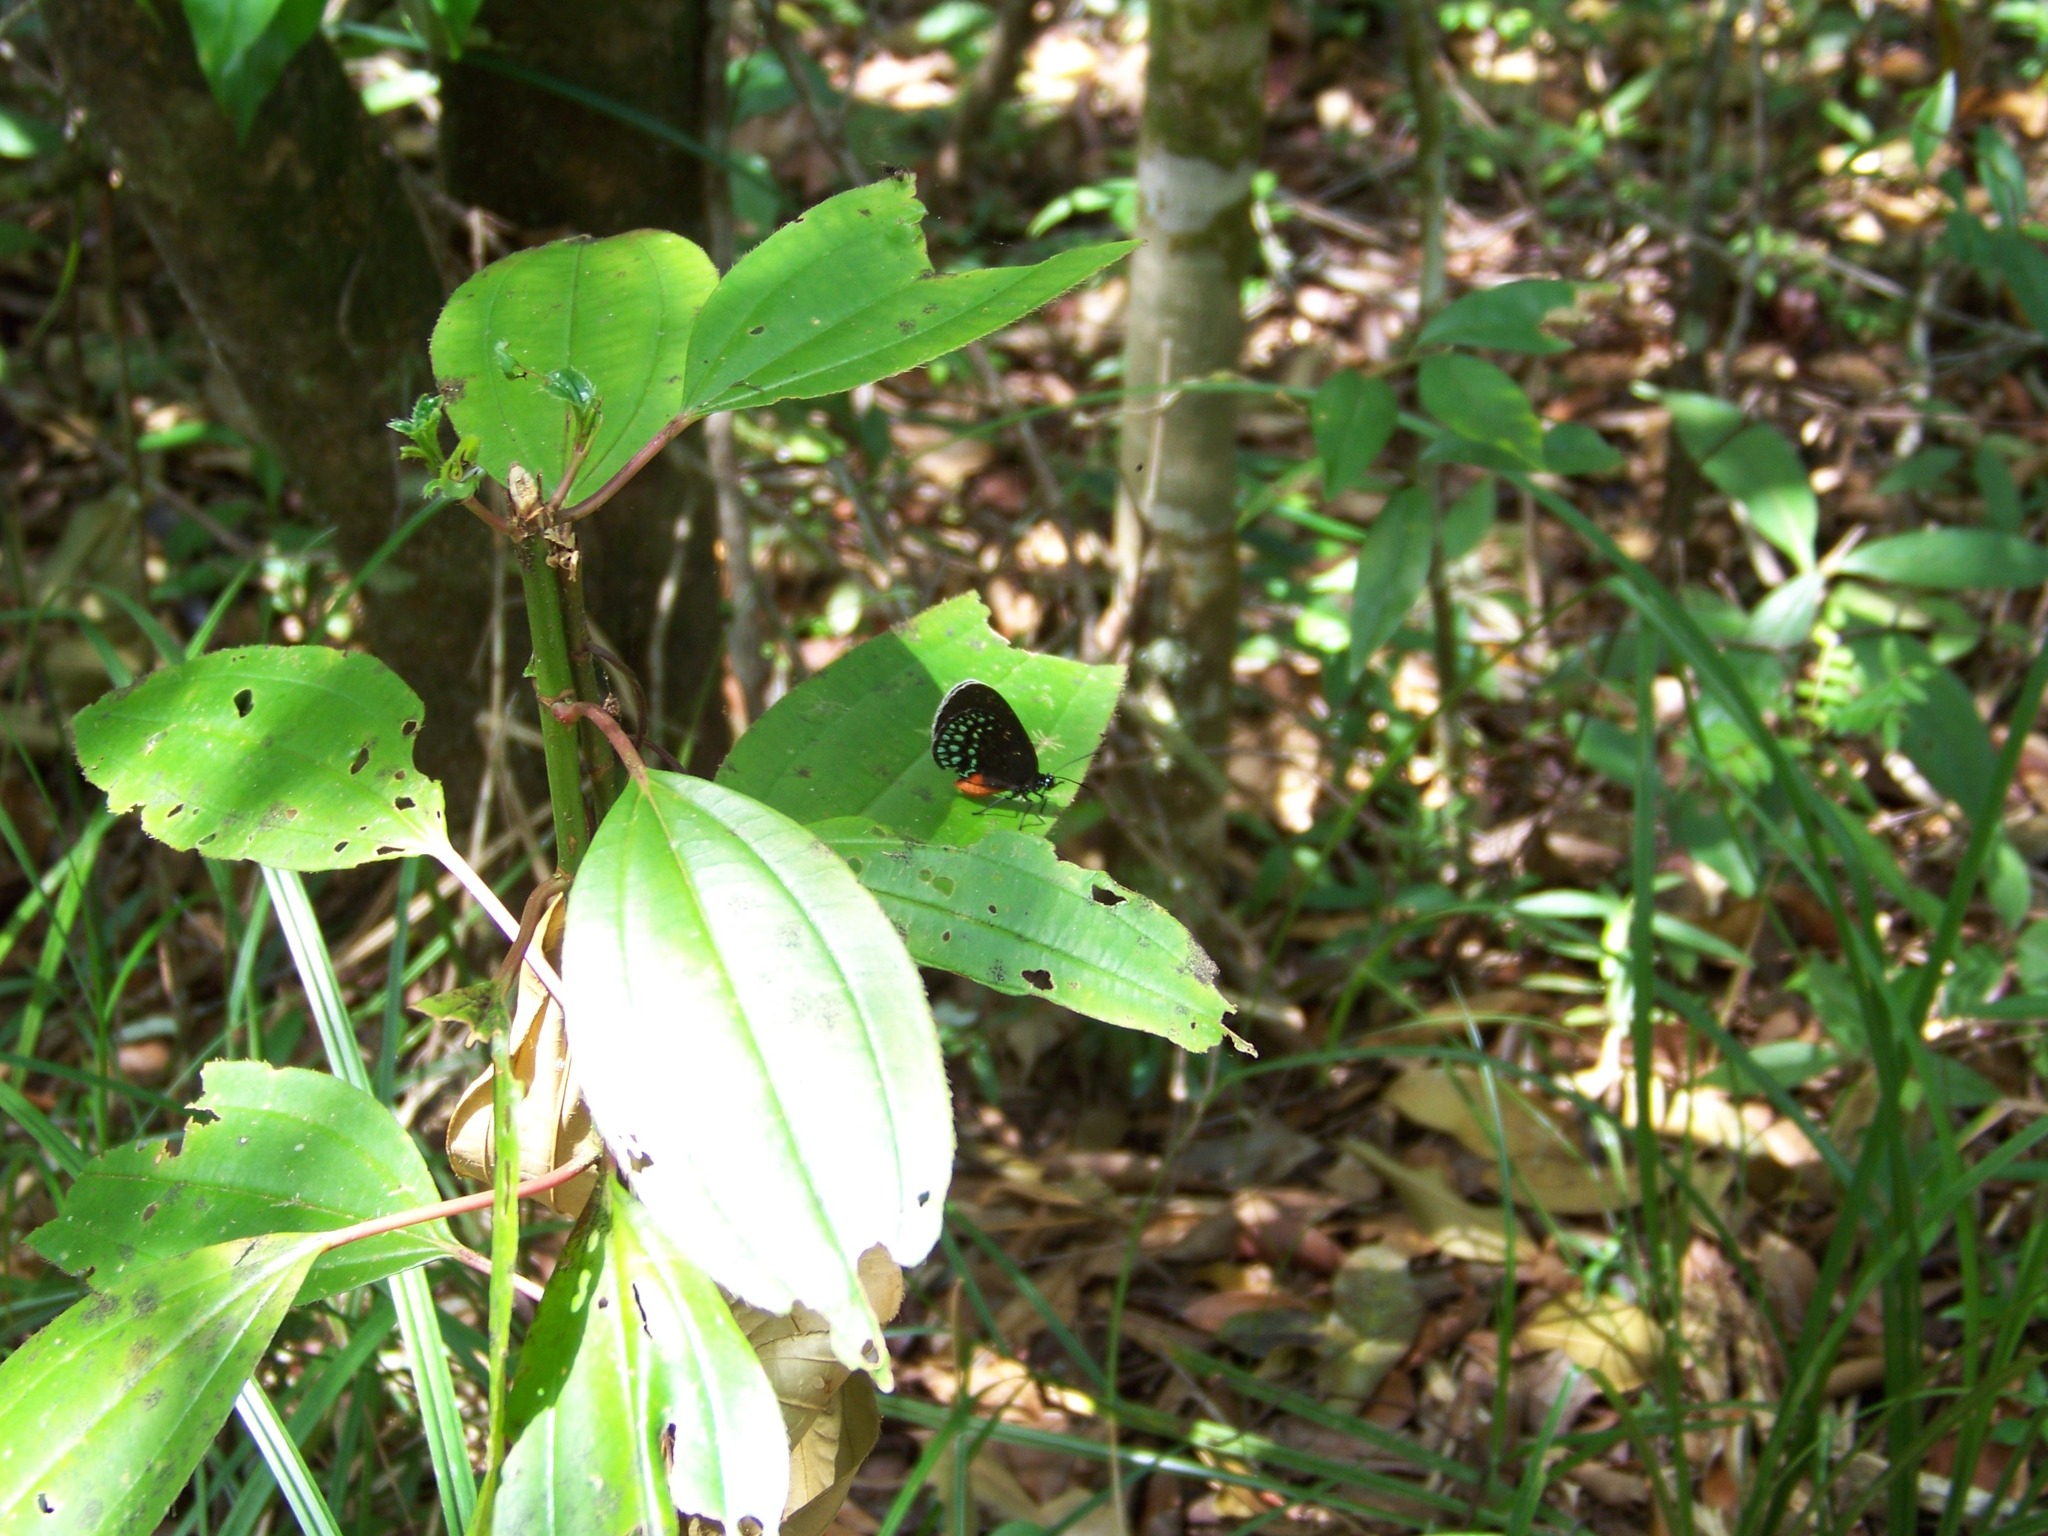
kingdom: Animalia
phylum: Arthropoda
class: Insecta
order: Lepidoptera
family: Lycaenidae
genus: Eumaeus
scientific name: Eumaeus toxea
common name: Mexican cycadian
